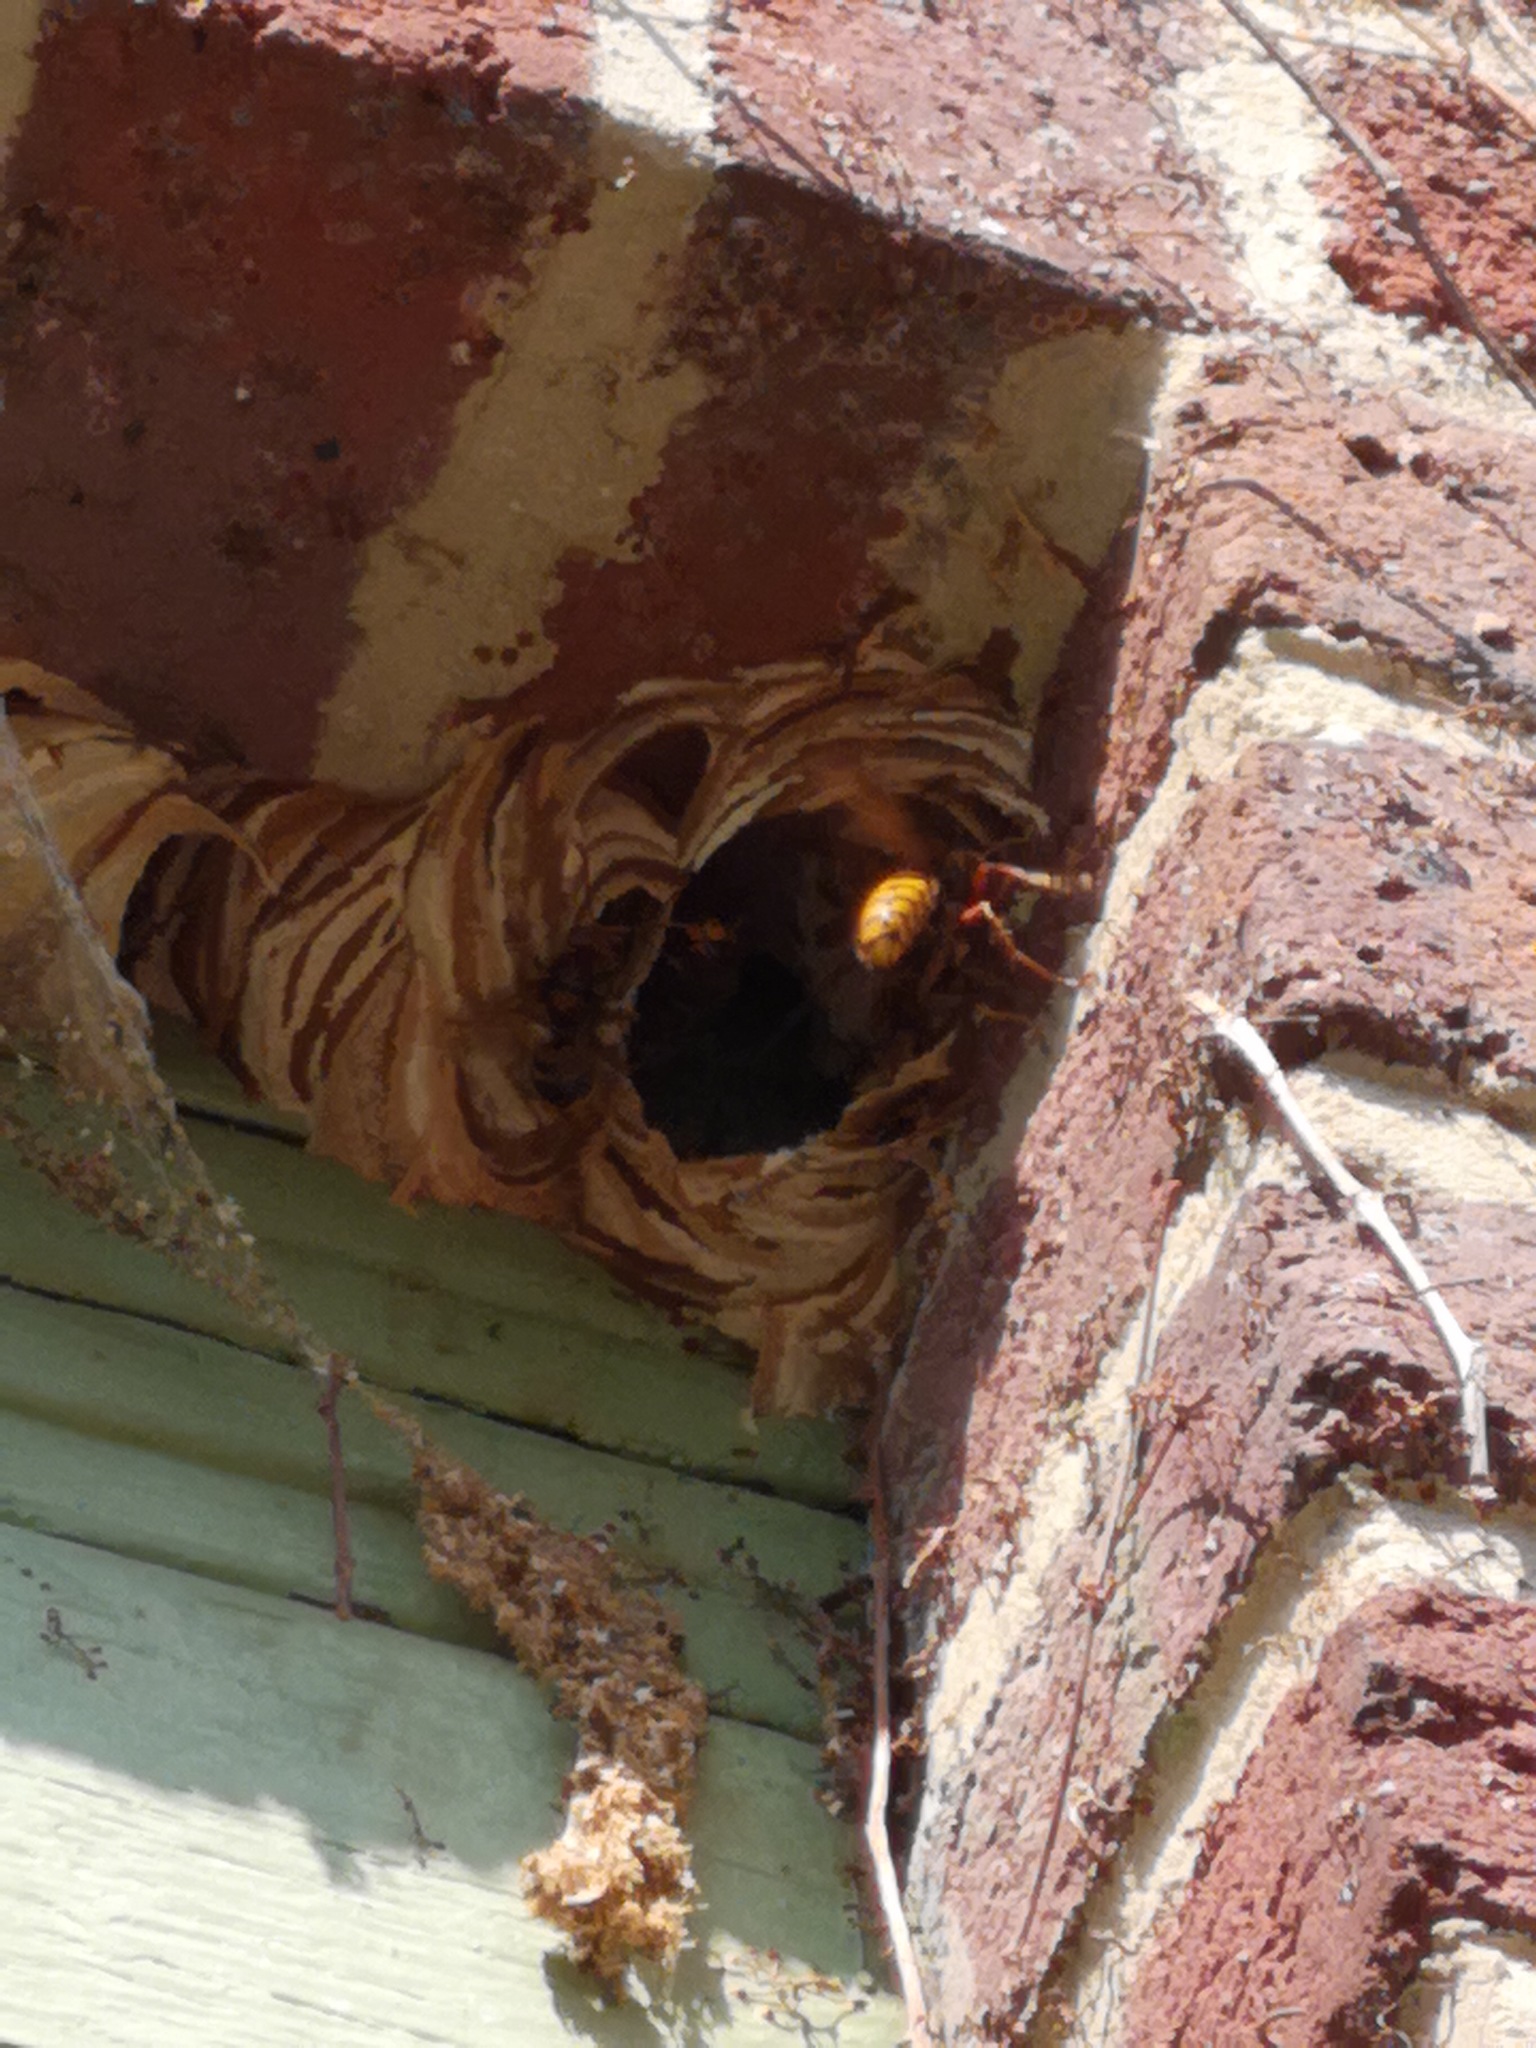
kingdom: Animalia
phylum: Arthropoda
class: Insecta
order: Hymenoptera
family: Vespidae
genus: Vespa
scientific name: Vespa crabro
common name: Hornet
